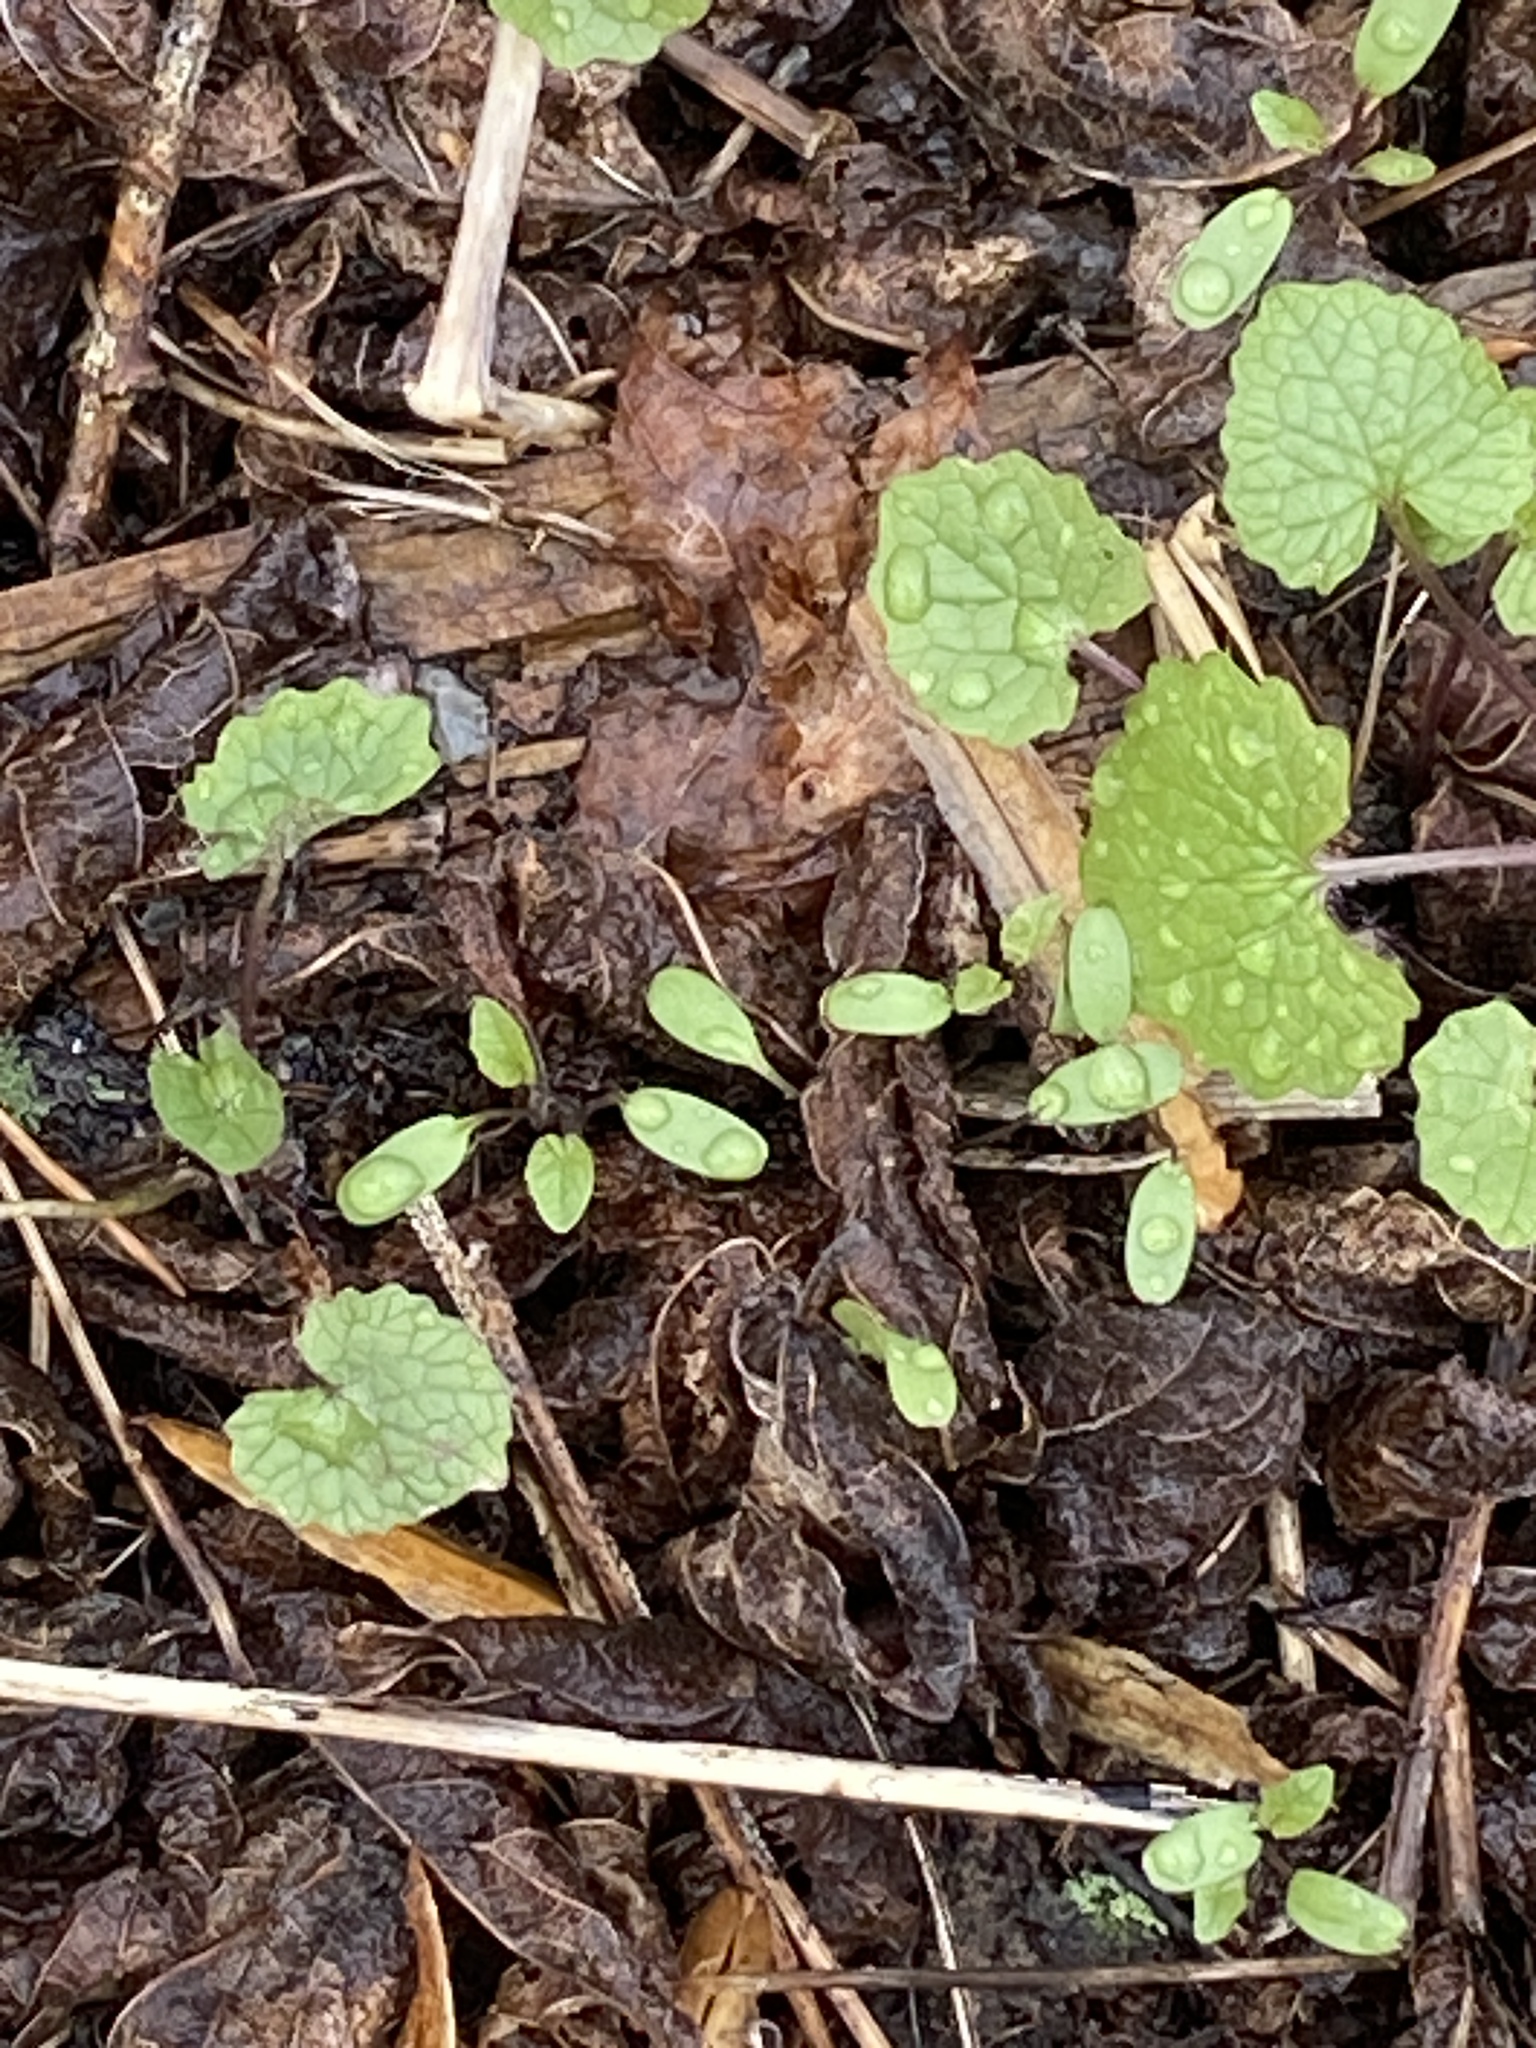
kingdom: Plantae
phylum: Tracheophyta
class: Magnoliopsida
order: Brassicales
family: Brassicaceae
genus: Alliaria
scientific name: Alliaria petiolata
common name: Garlic mustard
